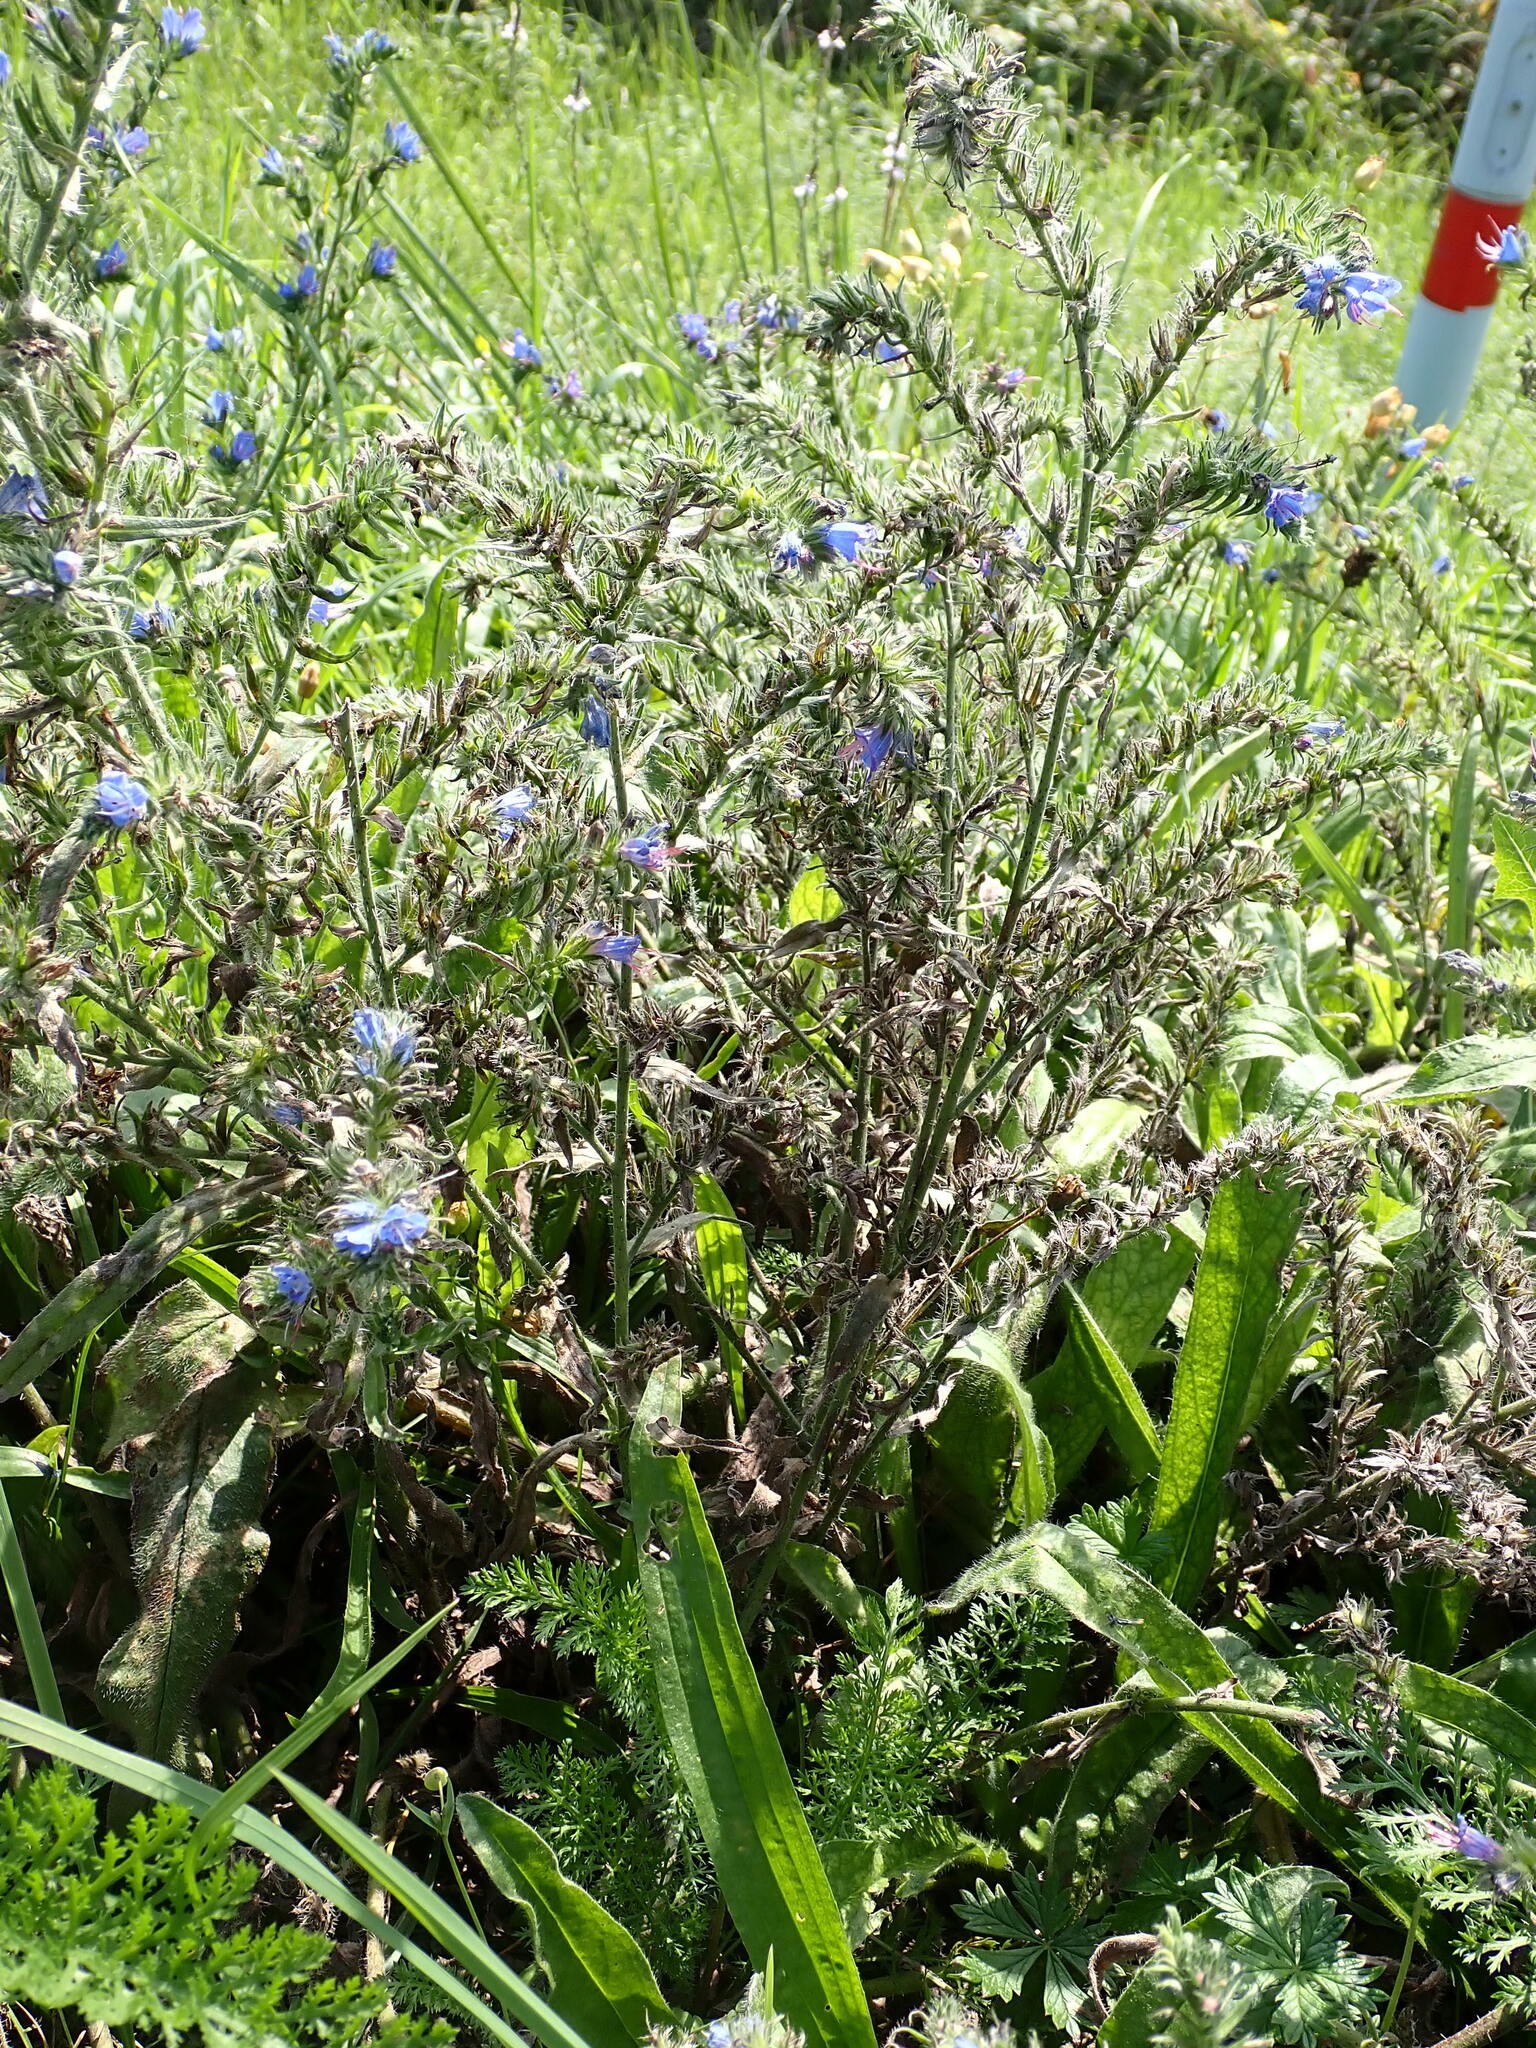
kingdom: Plantae
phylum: Tracheophyta
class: Magnoliopsida
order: Boraginales
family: Boraginaceae
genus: Echium
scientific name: Echium vulgare
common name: Common viper's bugloss
